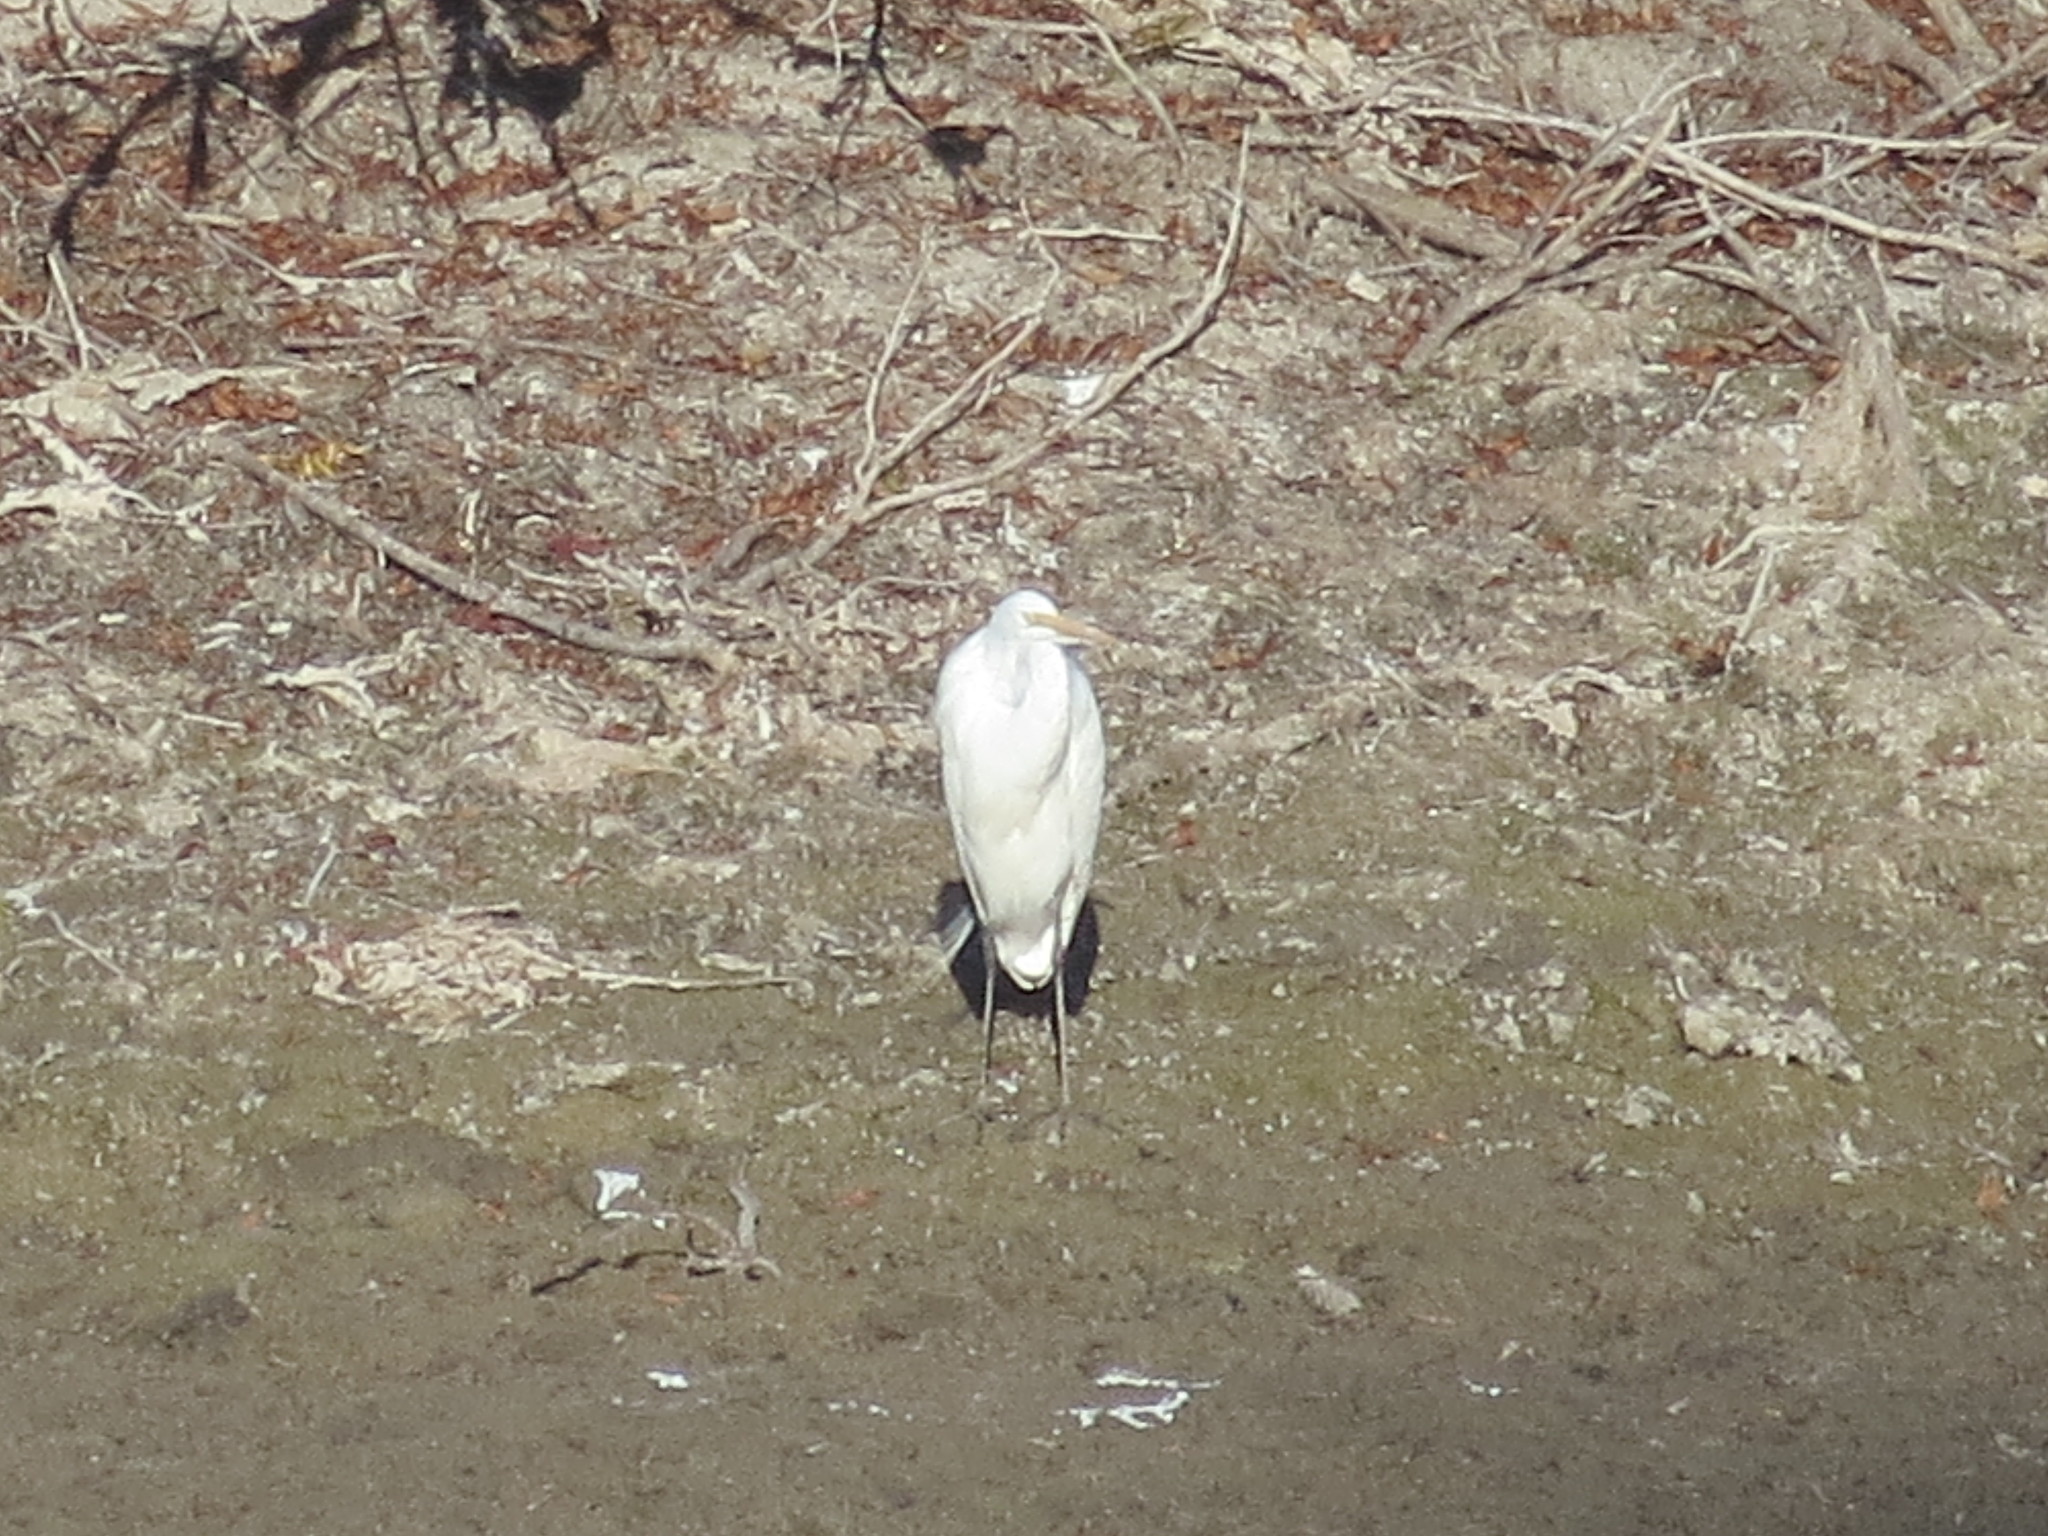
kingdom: Animalia
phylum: Chordata
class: Aves
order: Pelecaniformes
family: Ardeidae
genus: Ardea
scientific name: Ardea alba
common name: Great egret
